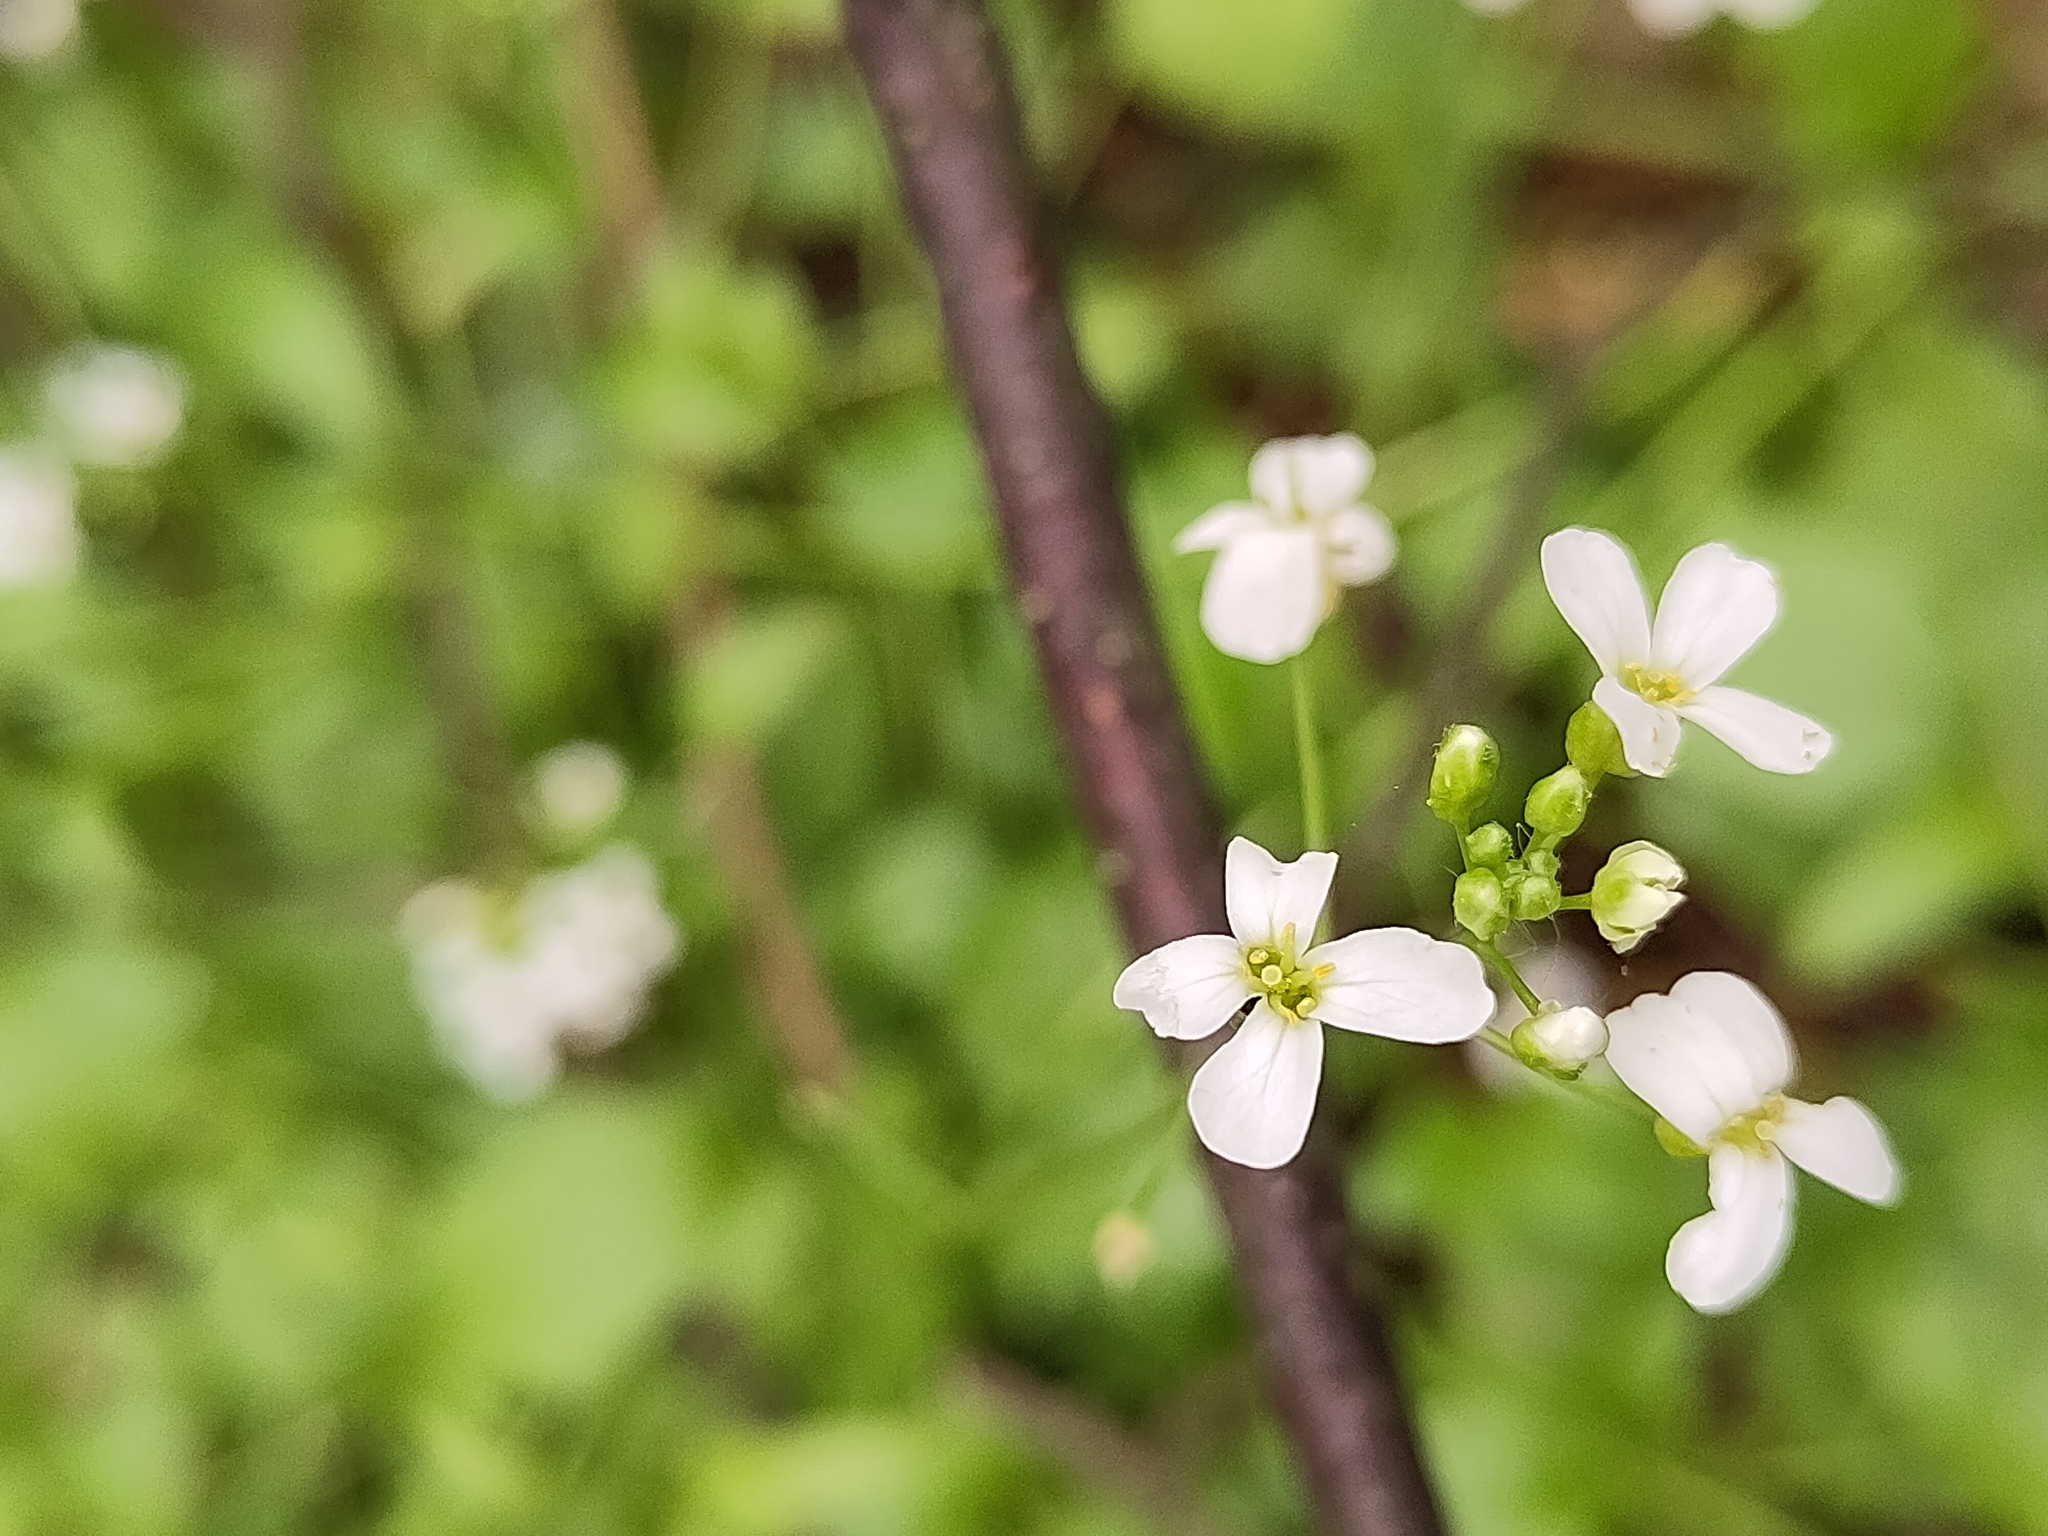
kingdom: Plantae
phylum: Tracheophyta
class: Magnoliopsida
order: Brassicales
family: Brassicaceae
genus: Arabidopsis
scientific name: Arabidopsis halleri
